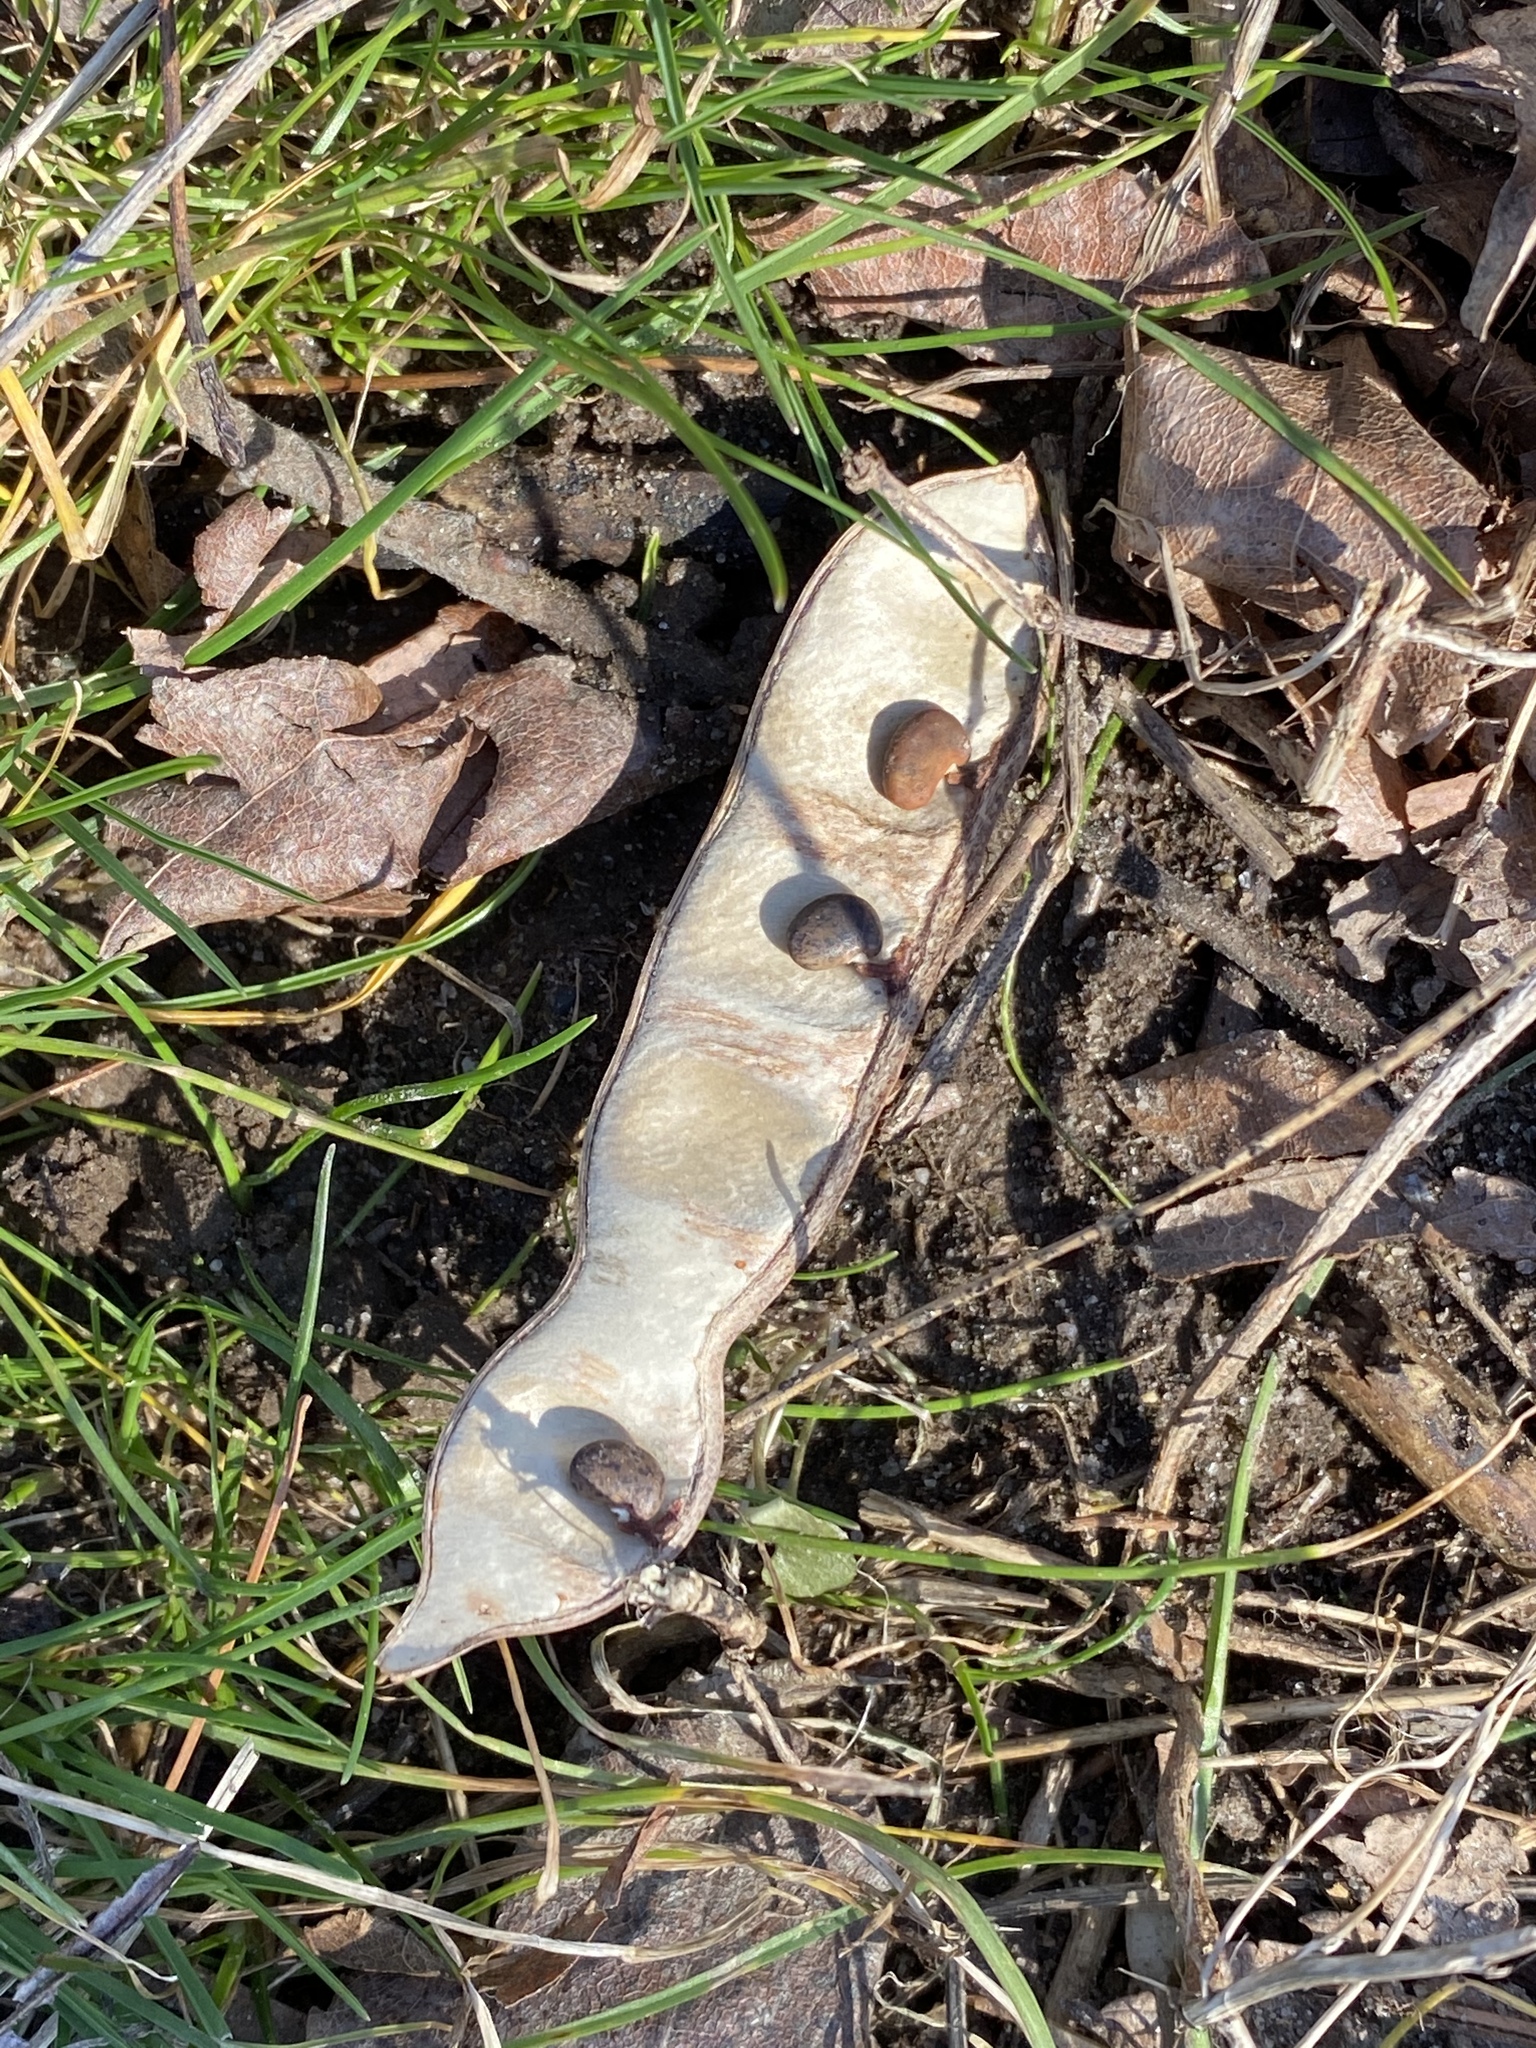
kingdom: Plantae
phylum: Tracheophyta
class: Magnoliopsida
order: Fabales
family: Fabaceae
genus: Robinia
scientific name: Robinia pseudoacacia
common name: Black locust
